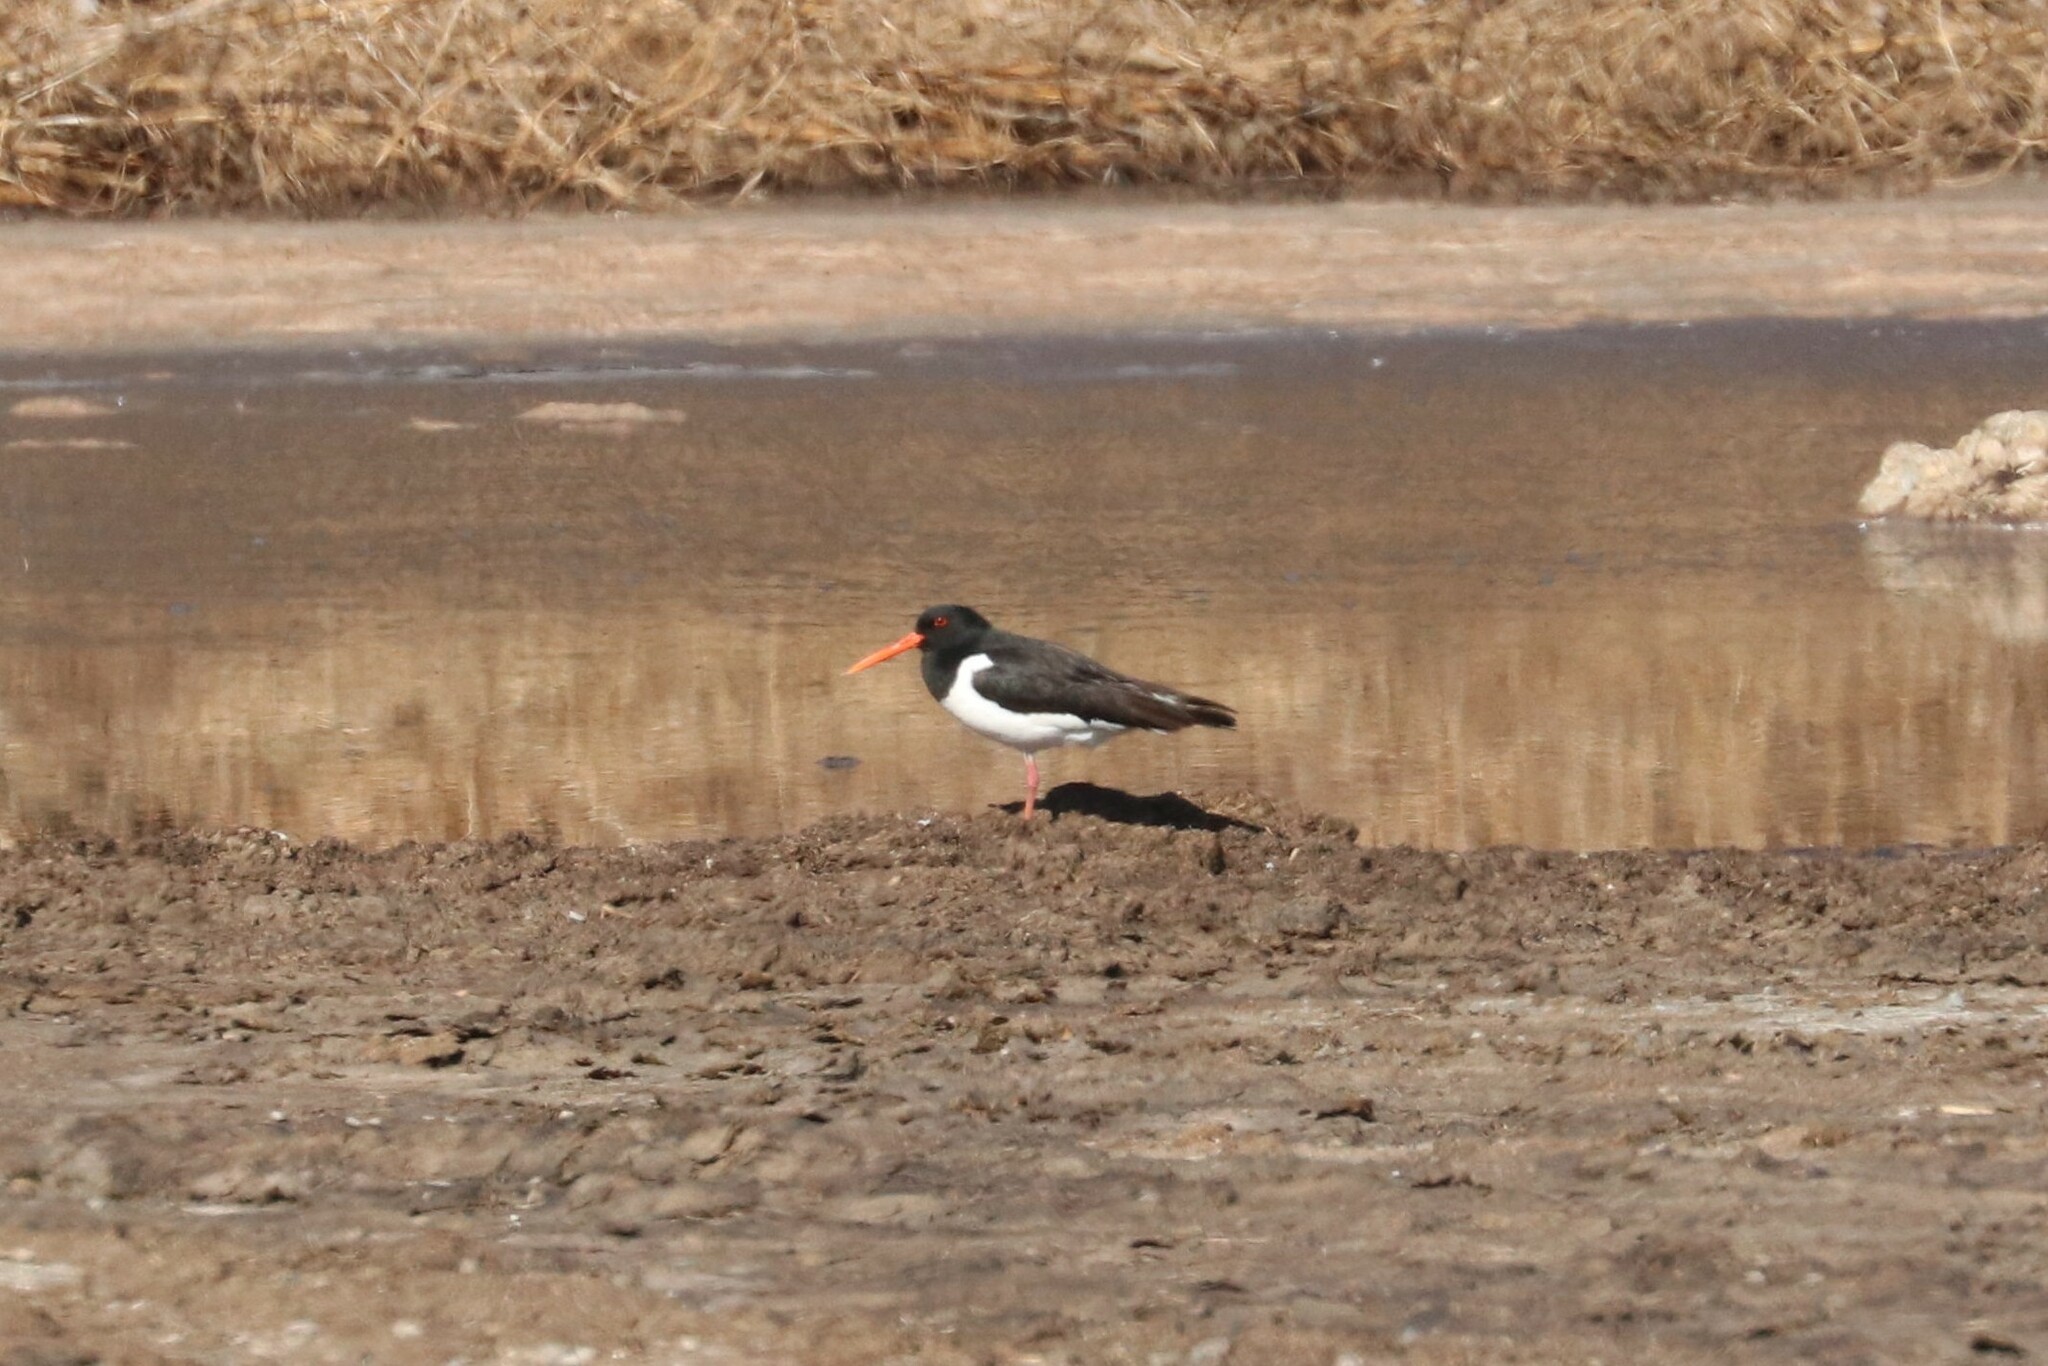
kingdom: Animalia
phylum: Chordata
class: Aves
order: Charadriiformes
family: Haematopodidae
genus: Haematopus
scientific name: Haematopus ostralegus
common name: Eurasian oystercatcher
